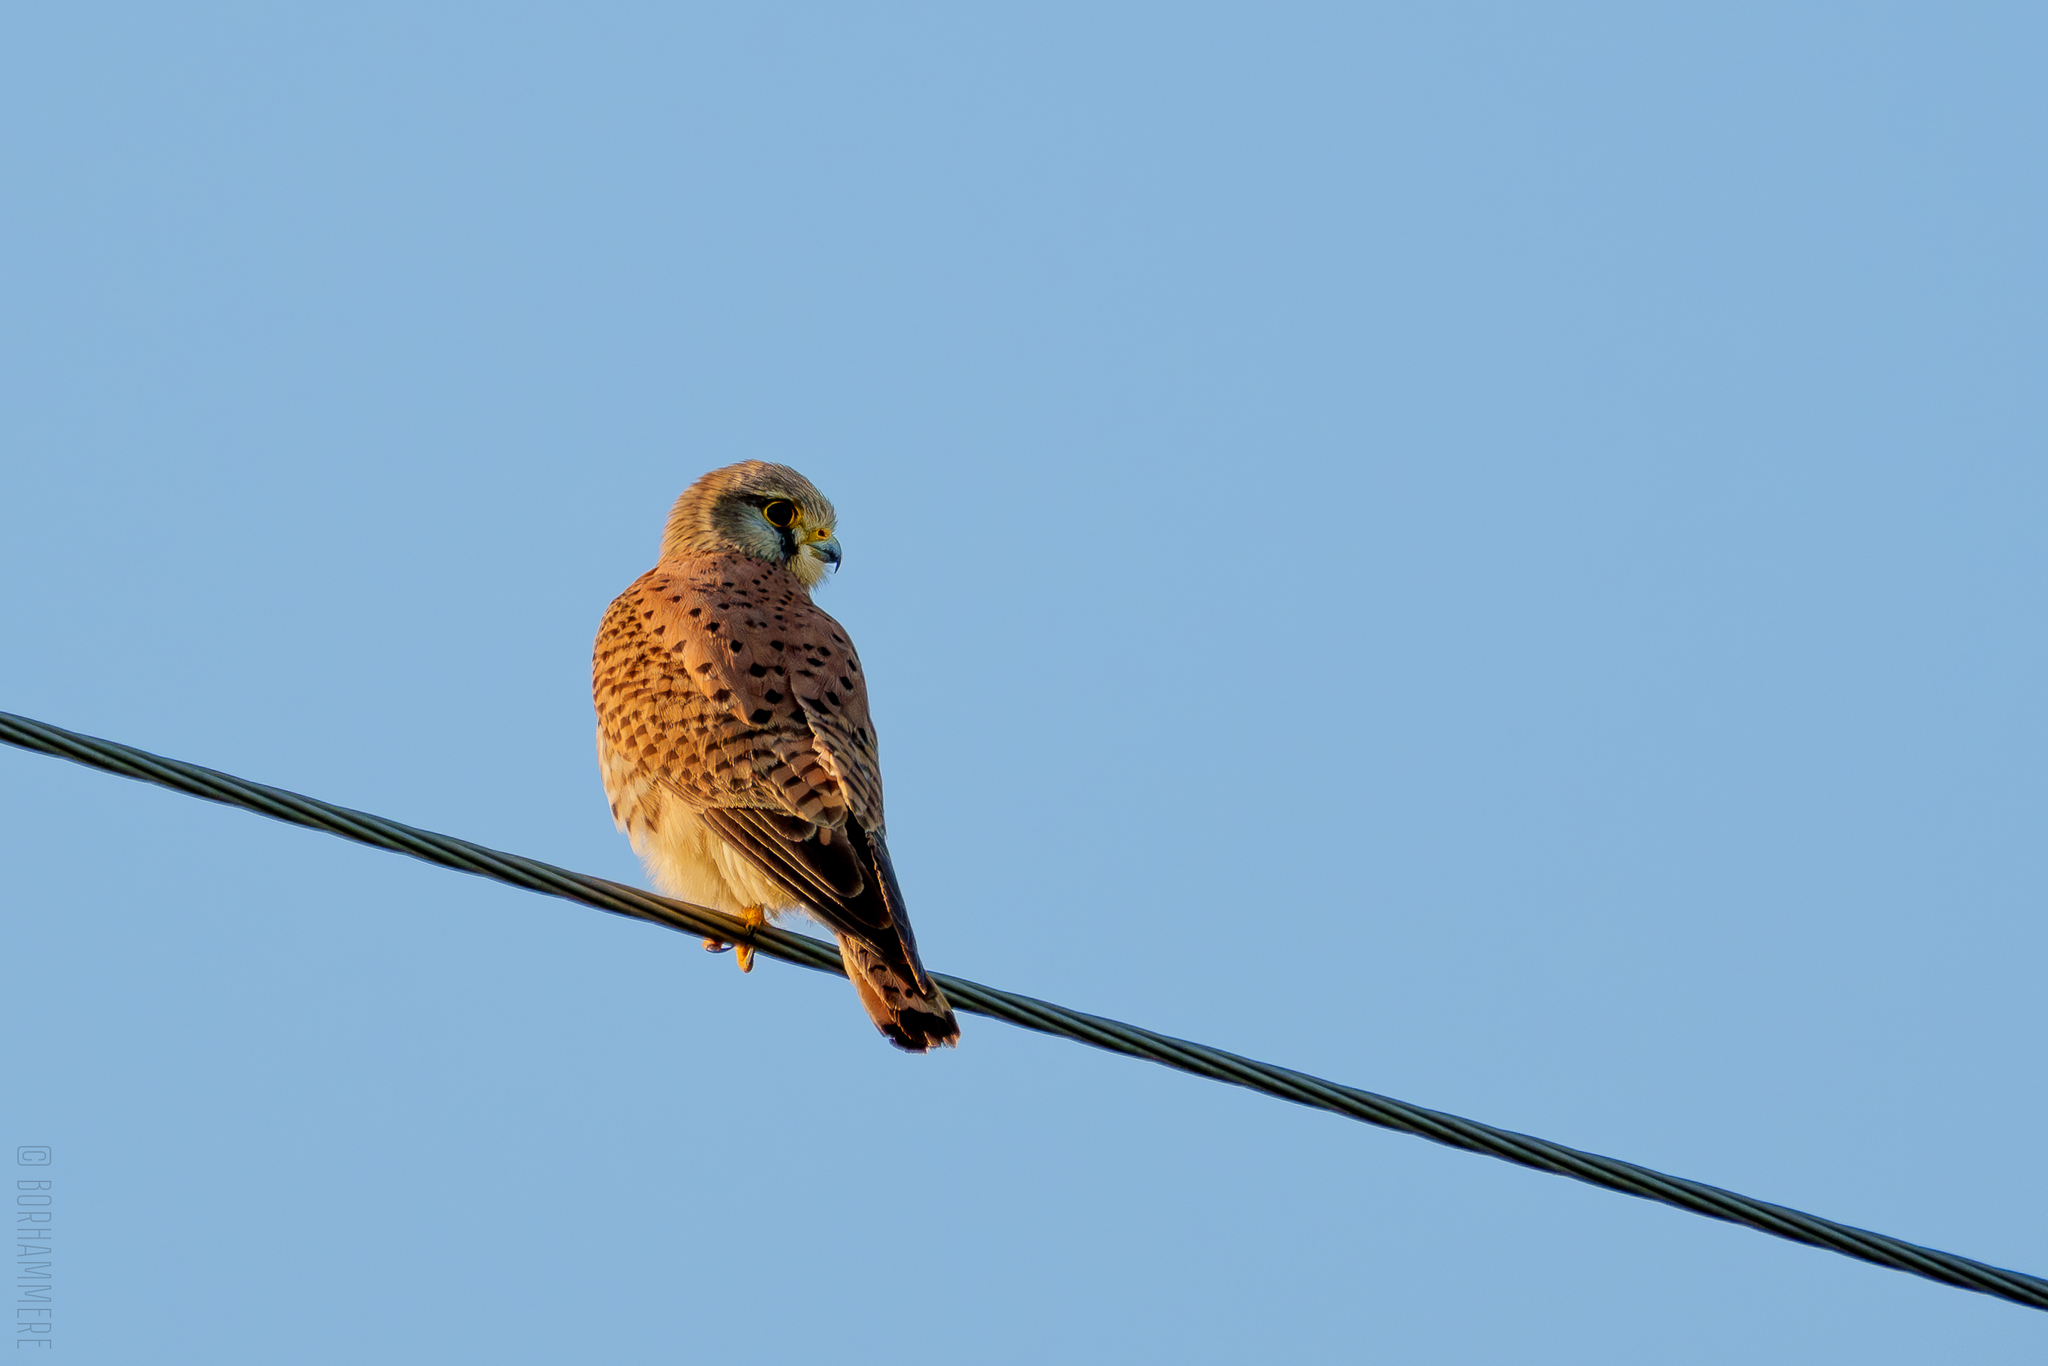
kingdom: Animalia
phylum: Chordata
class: Aves
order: Falconiformes
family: Falconidae
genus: Falco
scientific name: Falco tinnunculus
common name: Common kestrel
